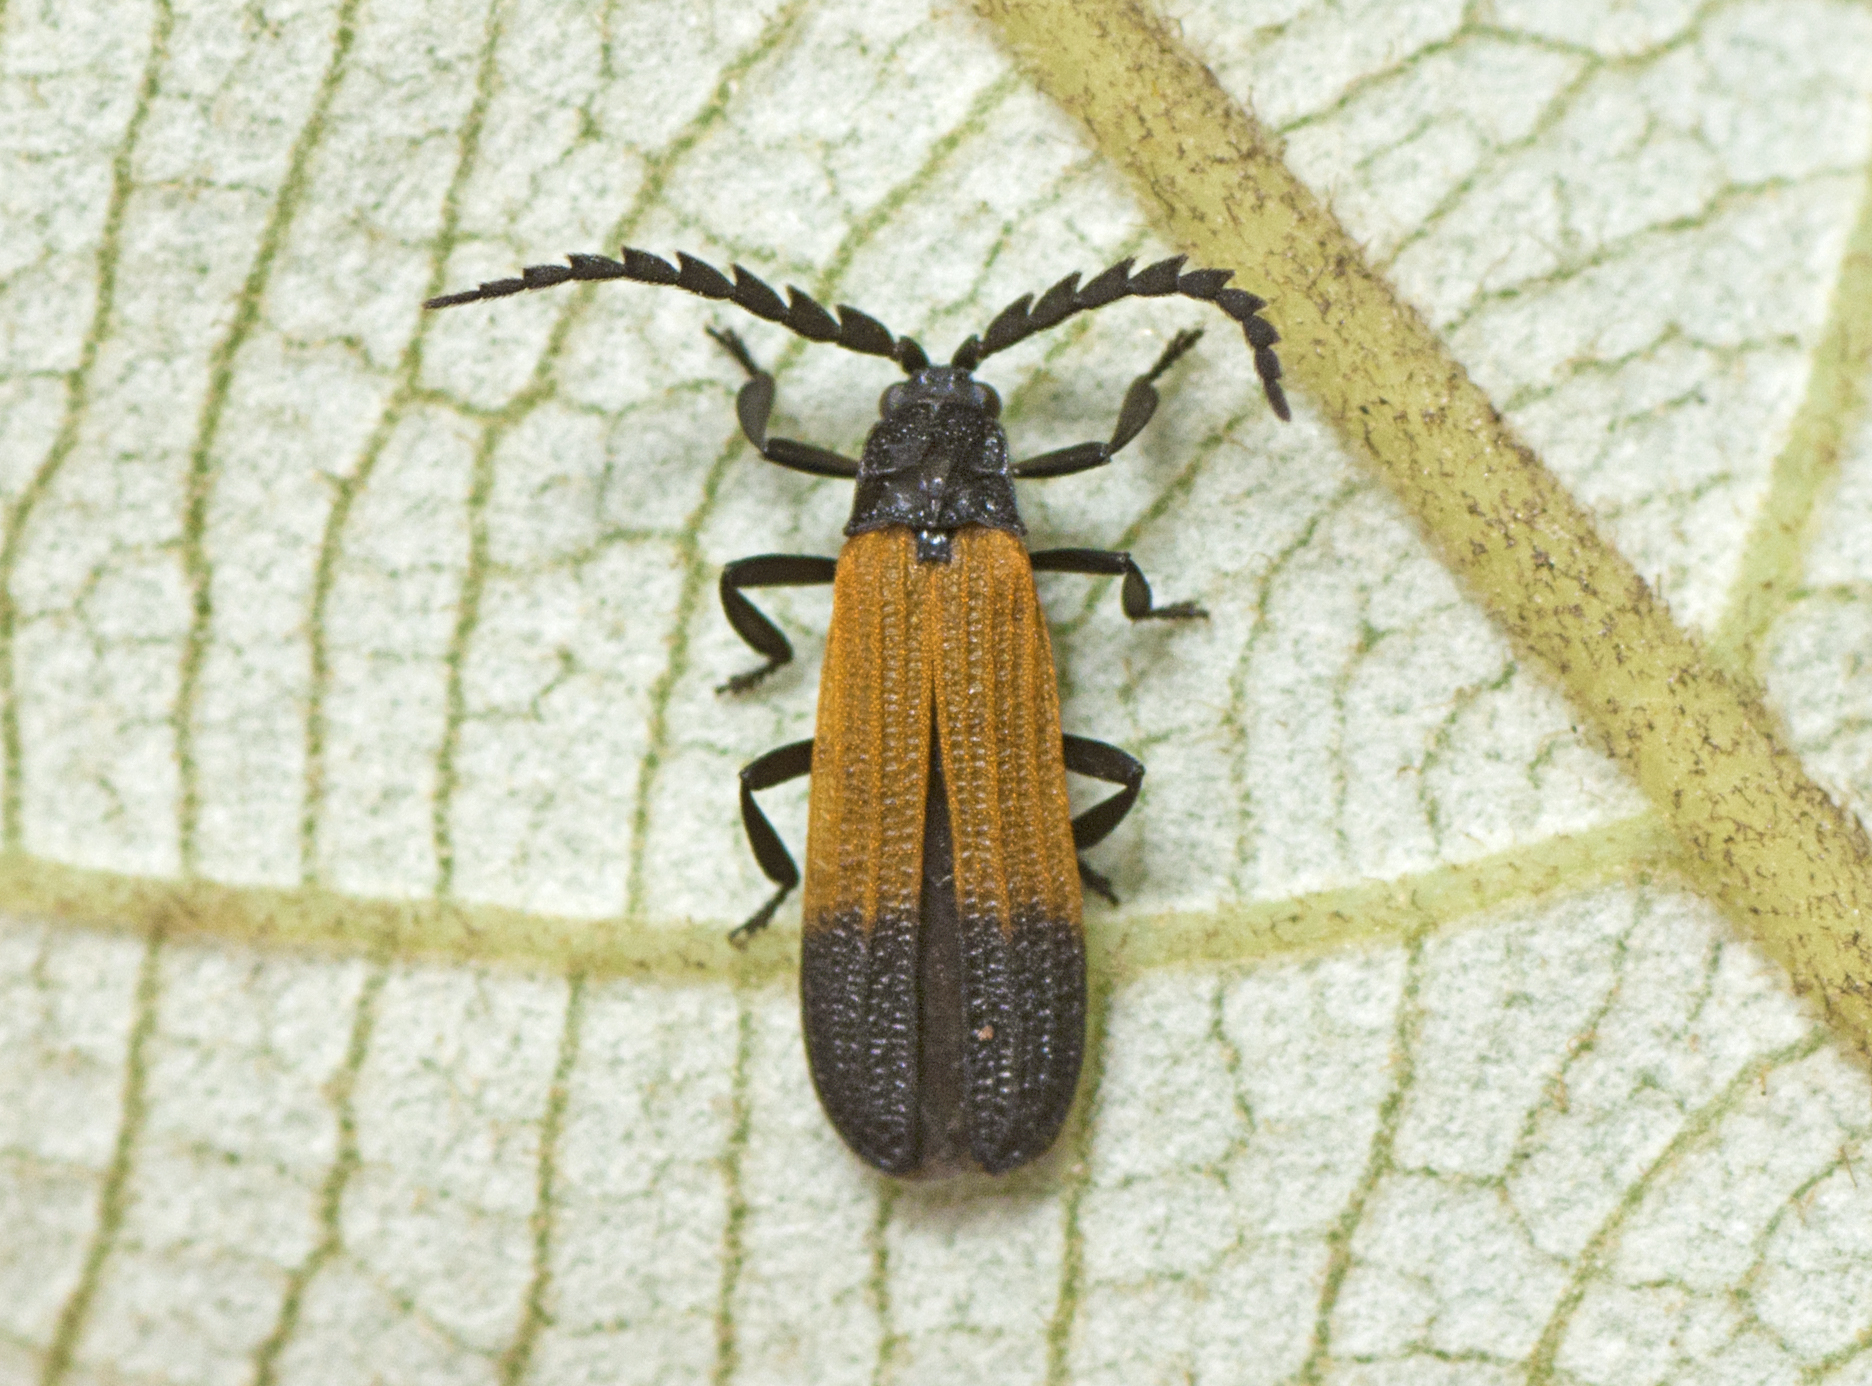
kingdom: Animalia
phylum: Arthropoda
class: Insecta
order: Coleoptera
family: Lycidae
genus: Synchonnus
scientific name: Synchonnus
